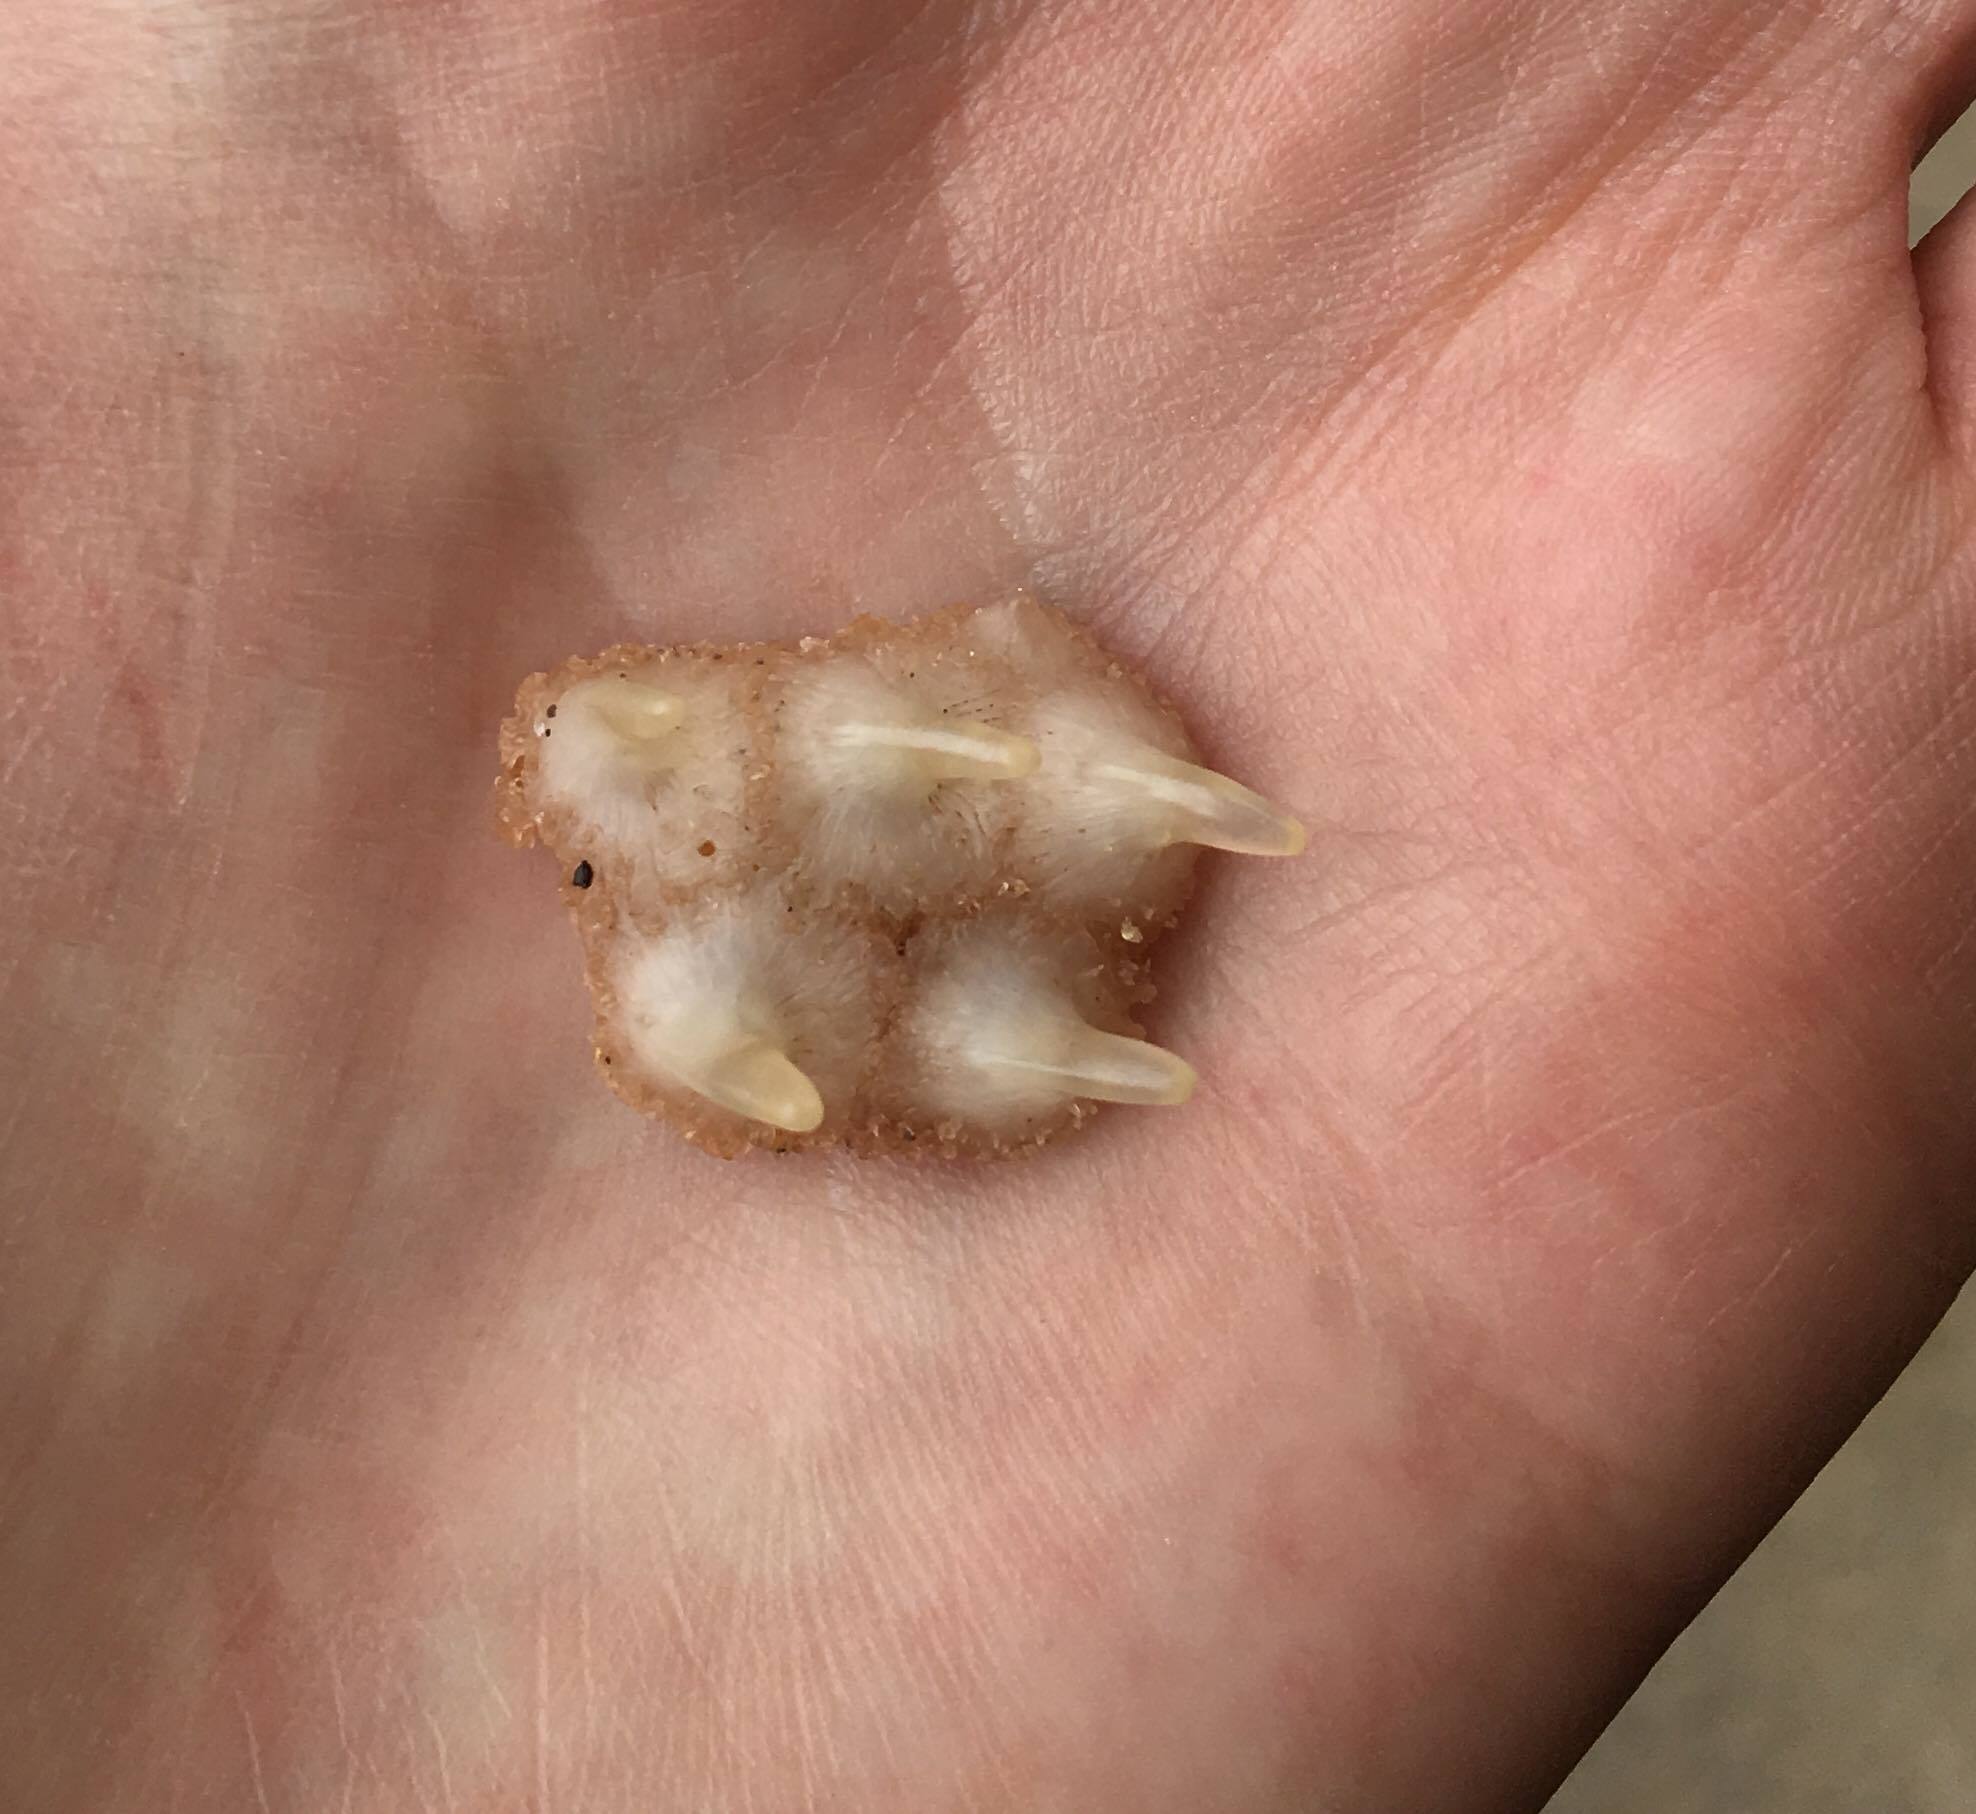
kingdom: Animalia
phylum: Chordata
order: Tetraodontiformes
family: Monacanthidae
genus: Meuschenia
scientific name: Meuschenia trachylepis
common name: Yellowfin leatherjacket
